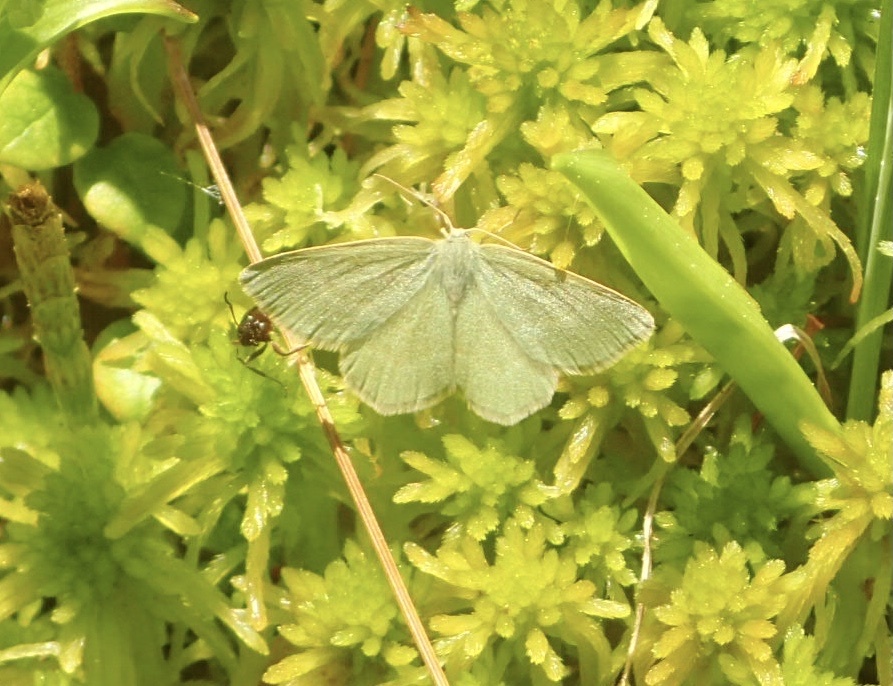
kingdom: Animalia
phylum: Arthropoda
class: Insecta
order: Lepidoptera
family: Geometridae
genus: Mesothea
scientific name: Mesothea incertata
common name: Day emerald moth
